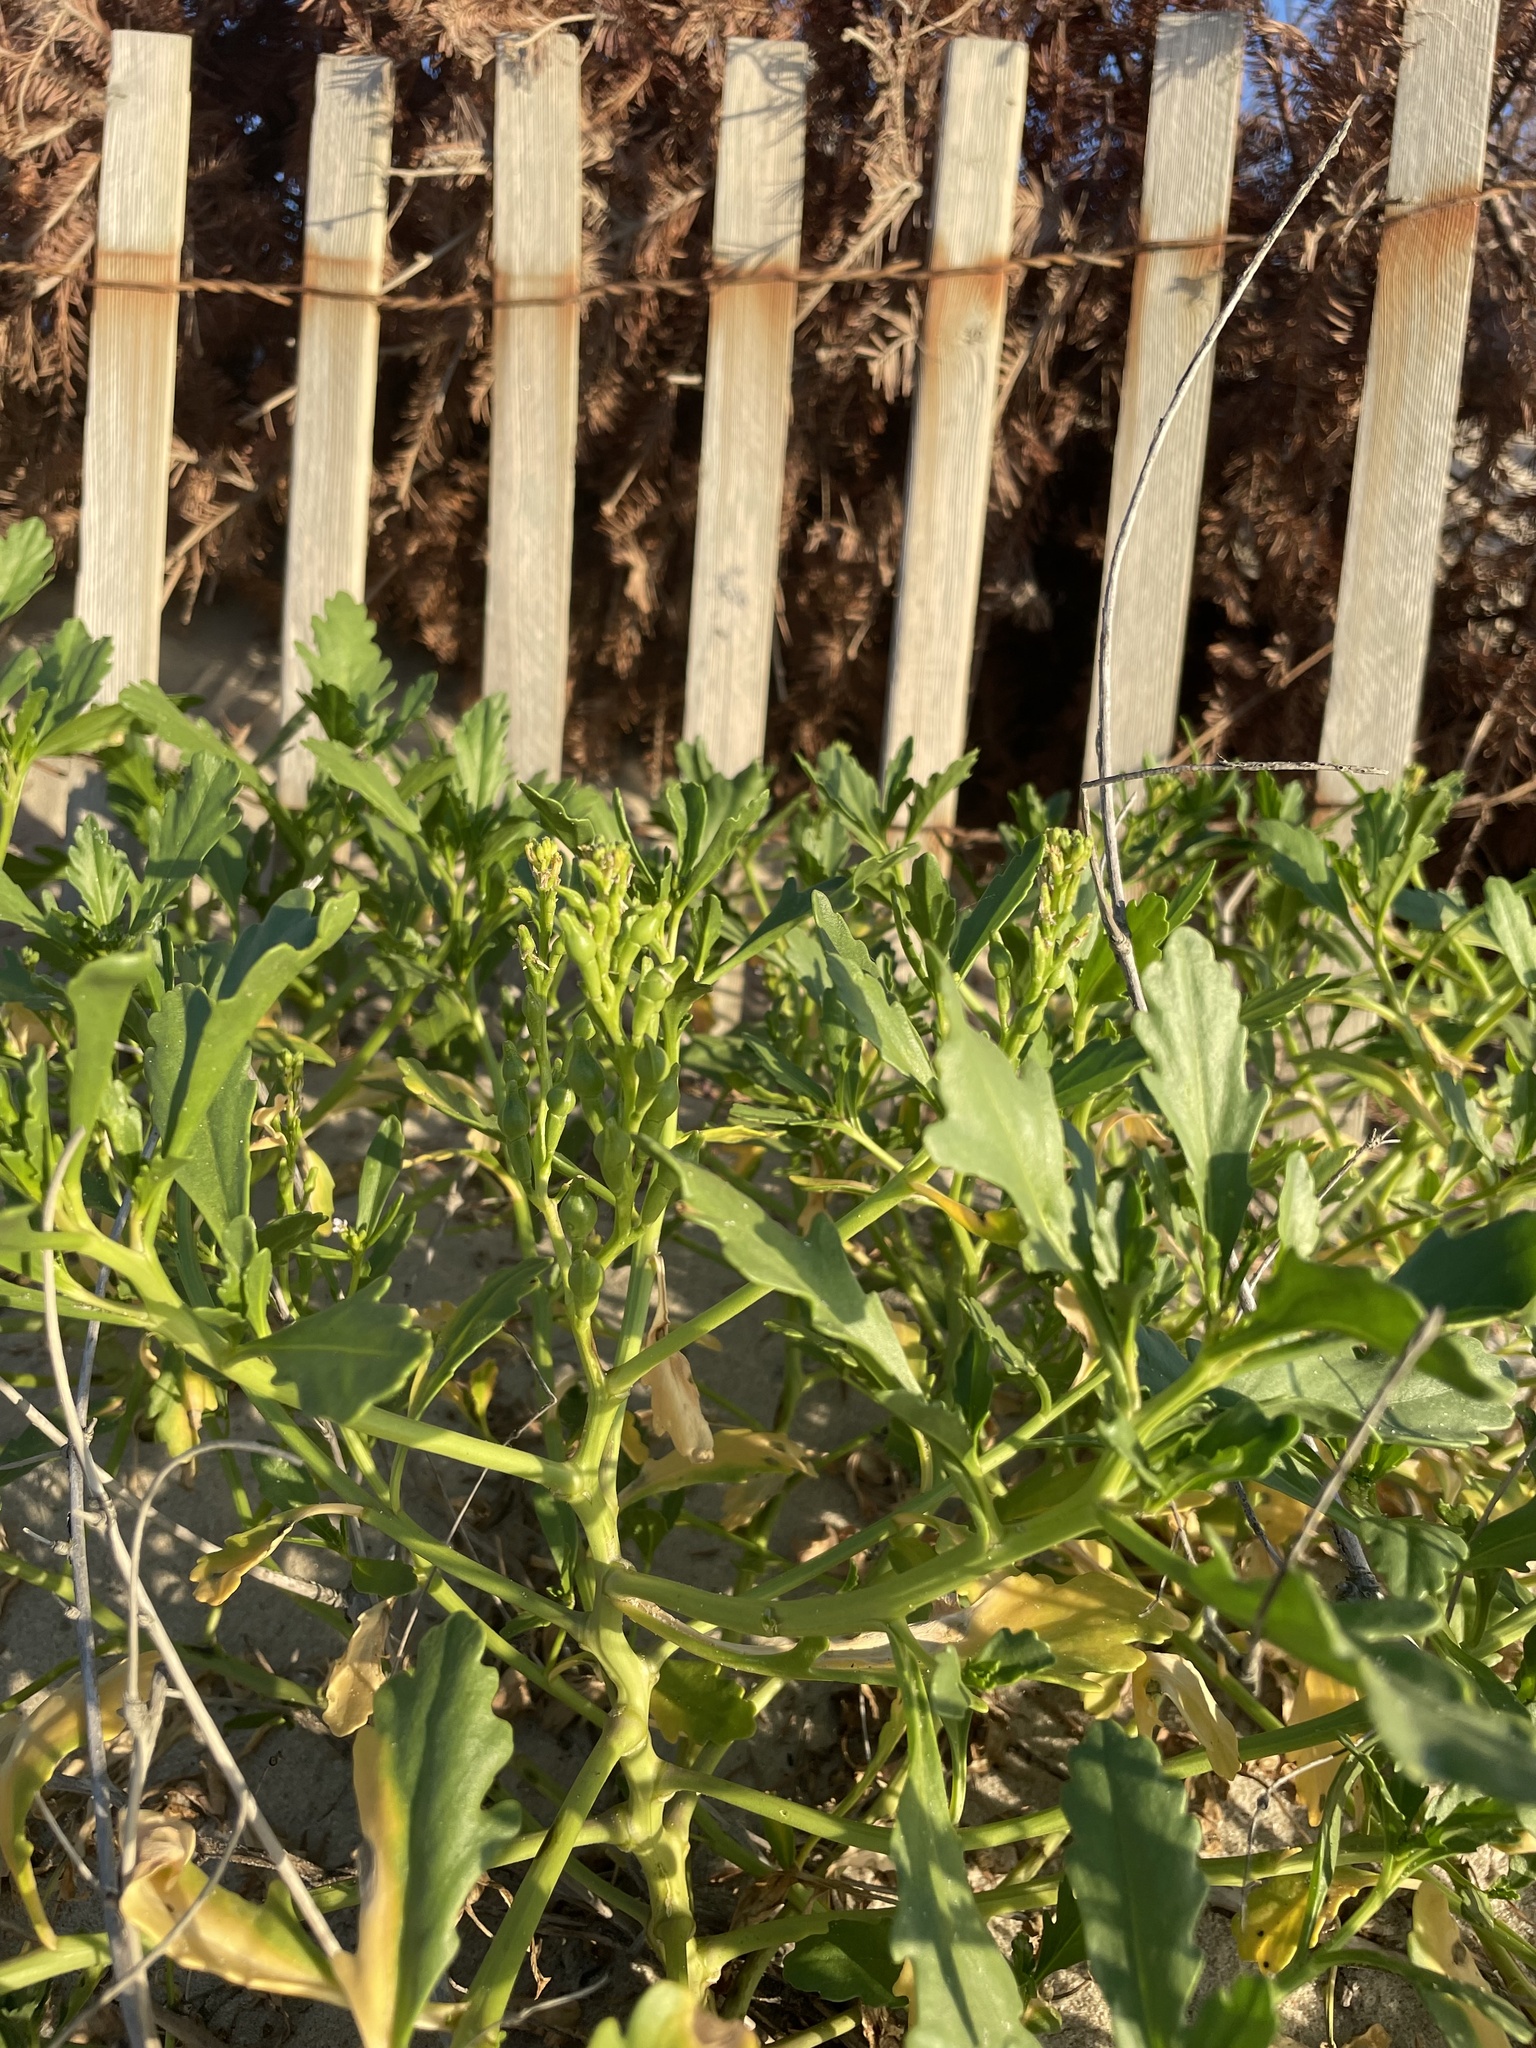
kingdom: Plantae
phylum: Tracheophyta
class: Magnoliopsida
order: Brassicales
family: Brassicaceae
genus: Cakile
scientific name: Cakile edentula
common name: American sea rocket
